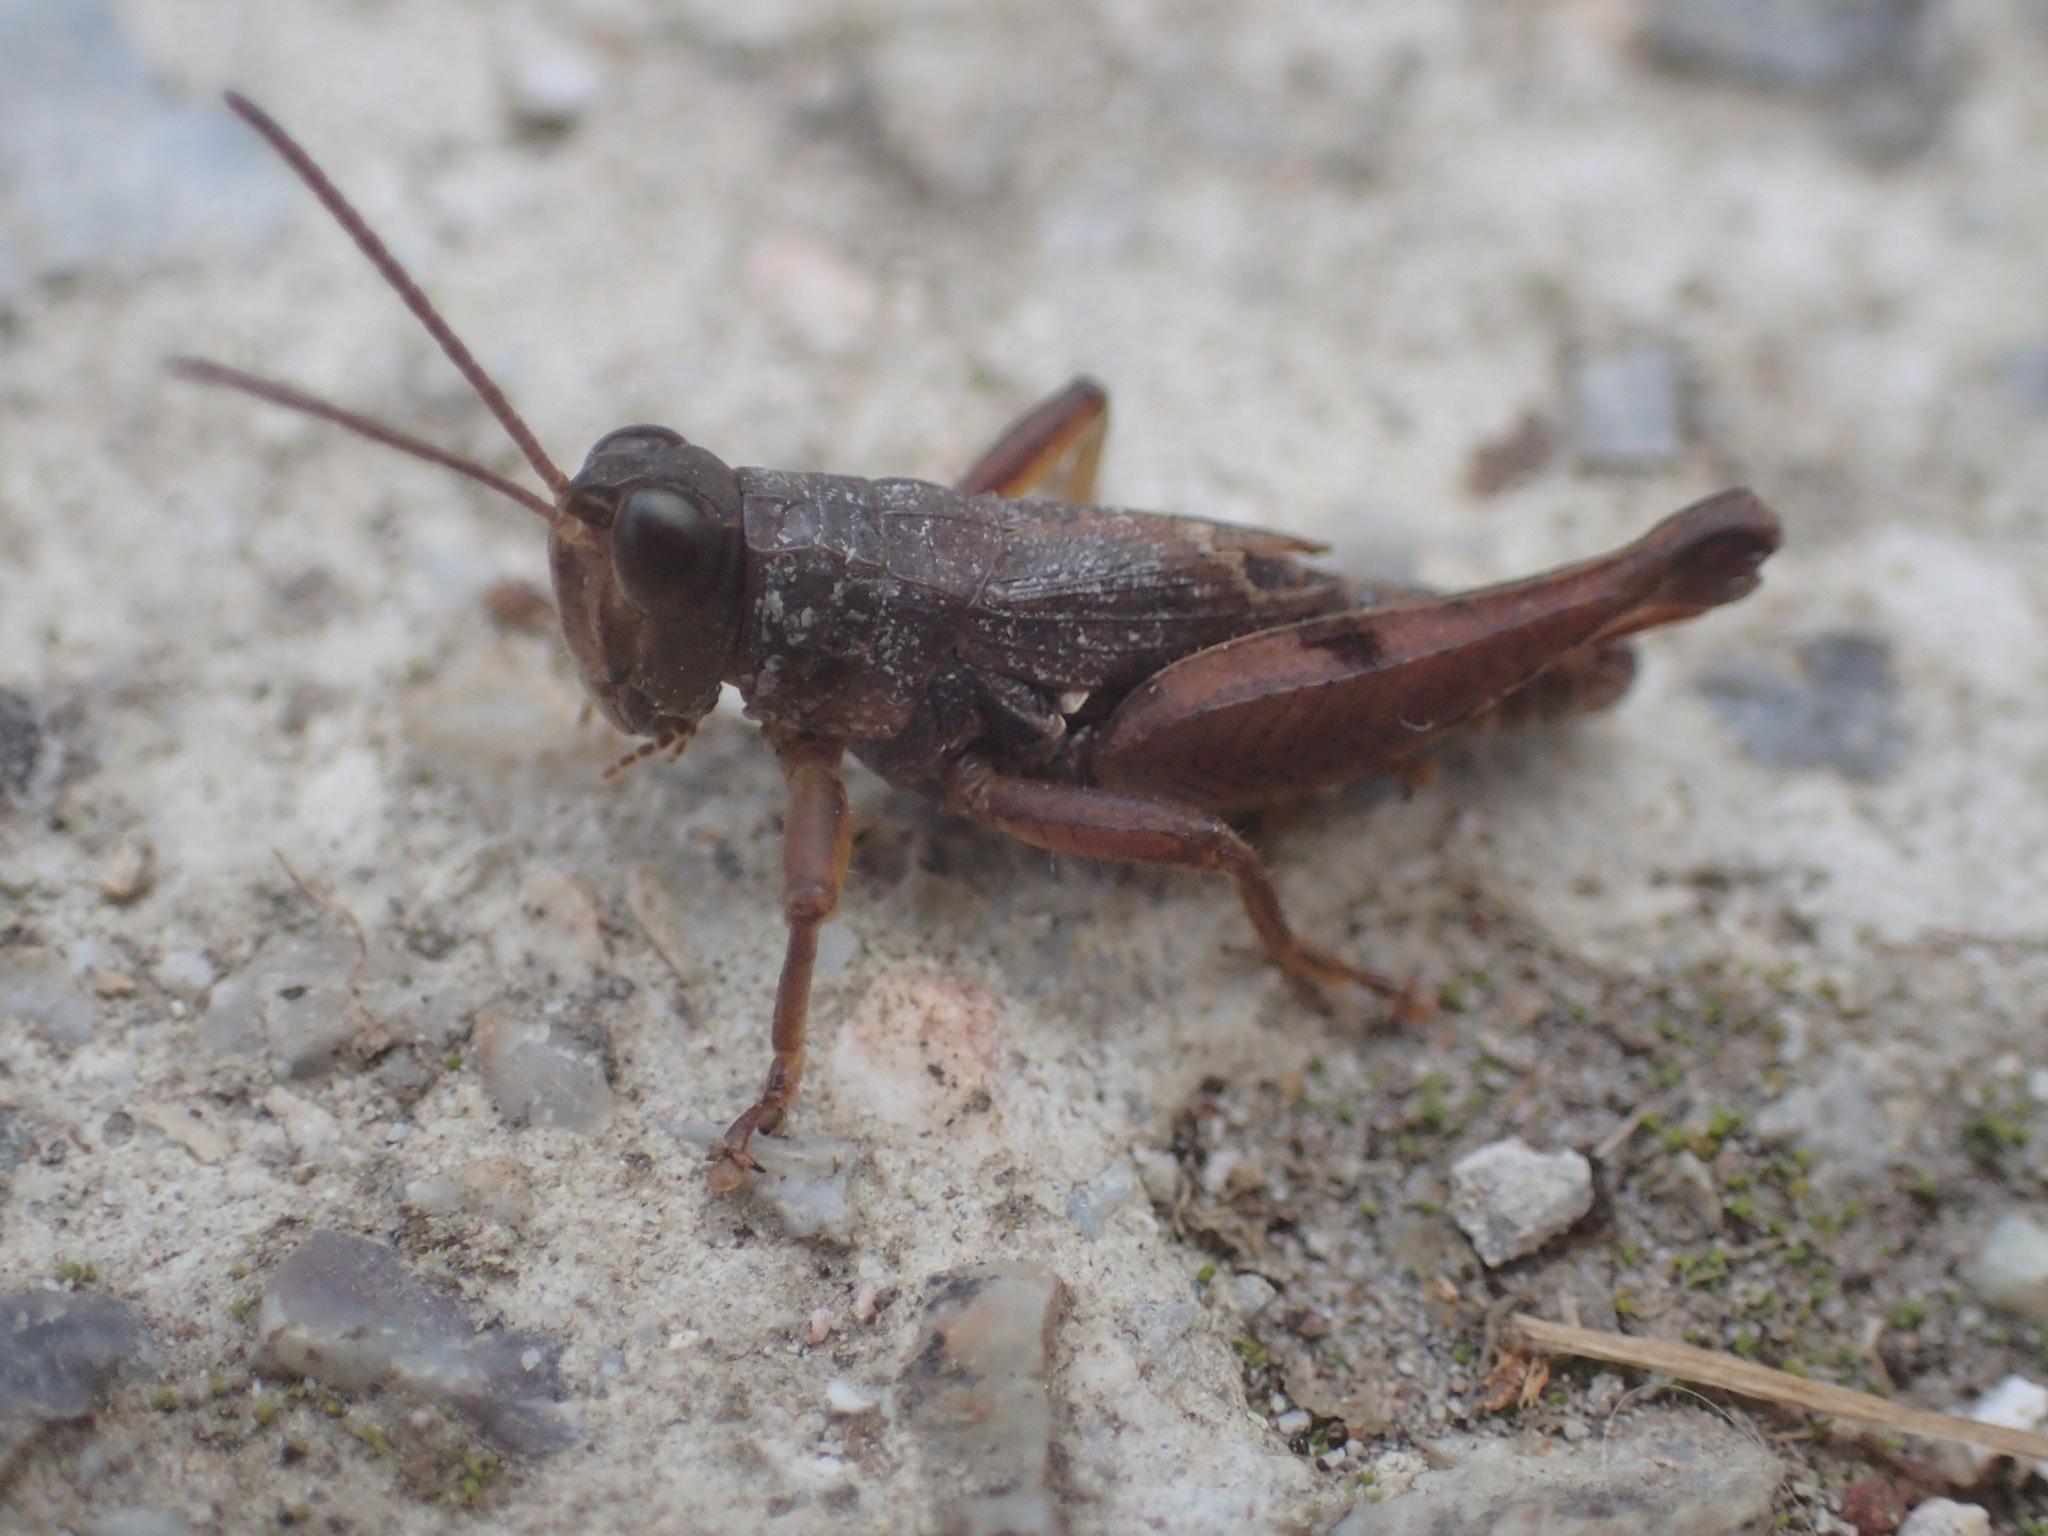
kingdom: Animalia
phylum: Arthropoda
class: Insecta
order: Orthoptera
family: Acrididae
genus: Phaulacridium
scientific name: Phaulacridium vittatum
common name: Wingless grasshopper
